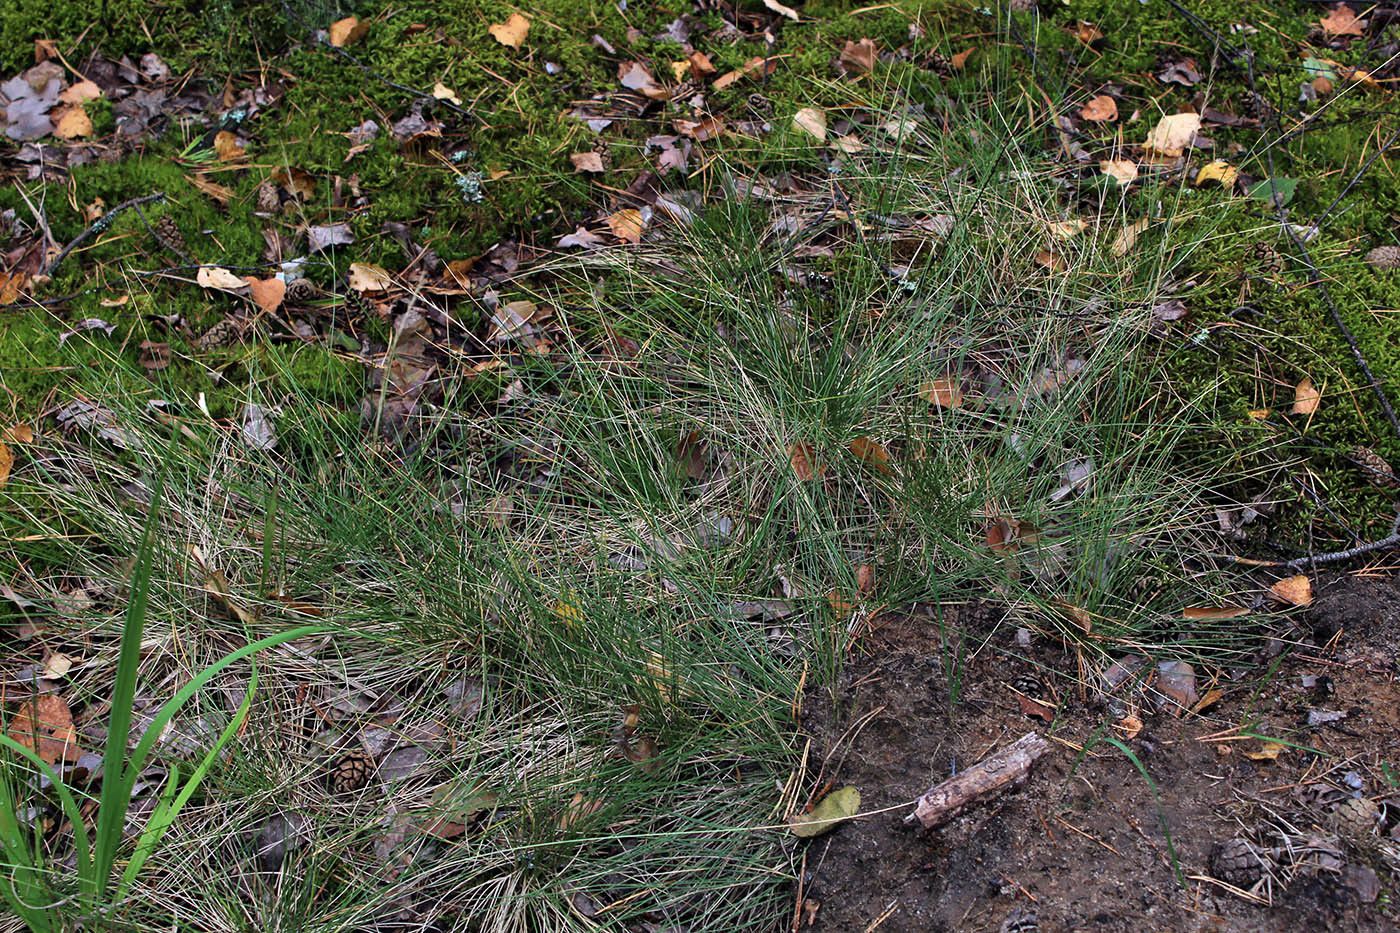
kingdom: Plantae
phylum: Tracheophyta
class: Liliopsida
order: Poales
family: Poaceae
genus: Nardus
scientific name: Nardus stricta
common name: Mat-grass
